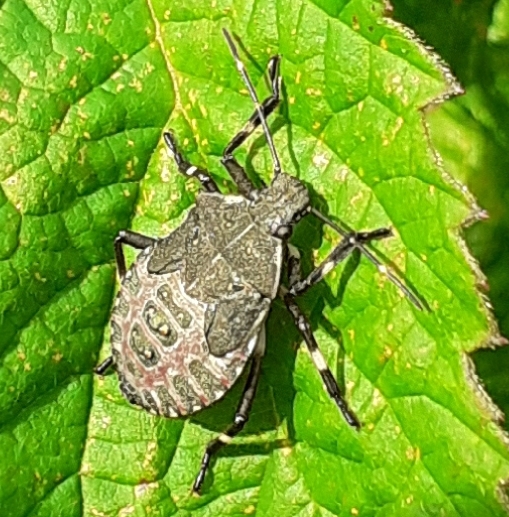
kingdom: Animalia
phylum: Arthropoda
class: Insecta
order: Hemiptera
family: Pentatomidae
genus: Halyomorpha
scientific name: Halyomorpha halys
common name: Brown marmorated stink bug
